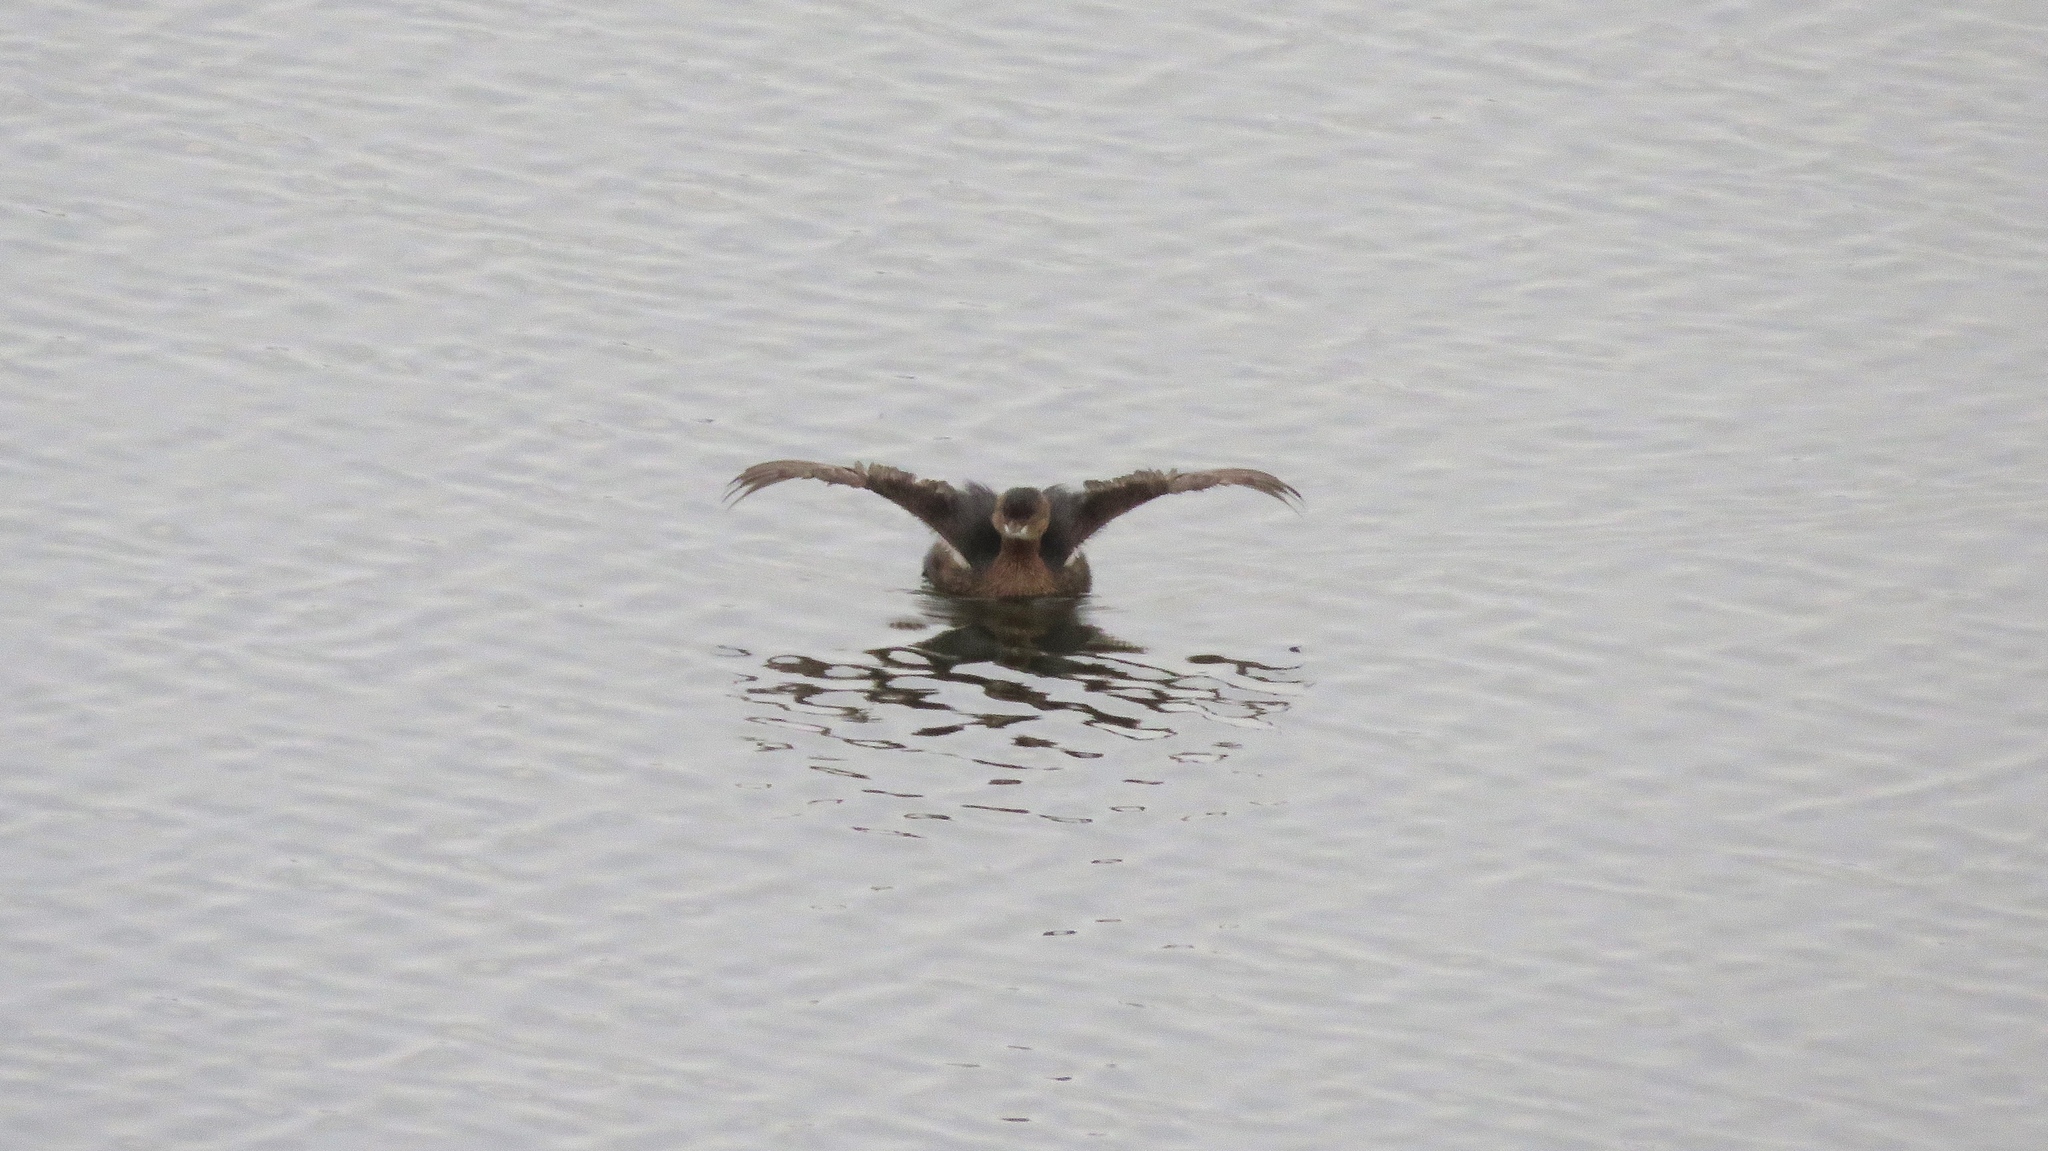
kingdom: Animalia
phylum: Chordata
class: Aves
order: Podicipediformes
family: Podicipedidae
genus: Podilymbus
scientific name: Podilymbus podiceps
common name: Pied-billed grebe
